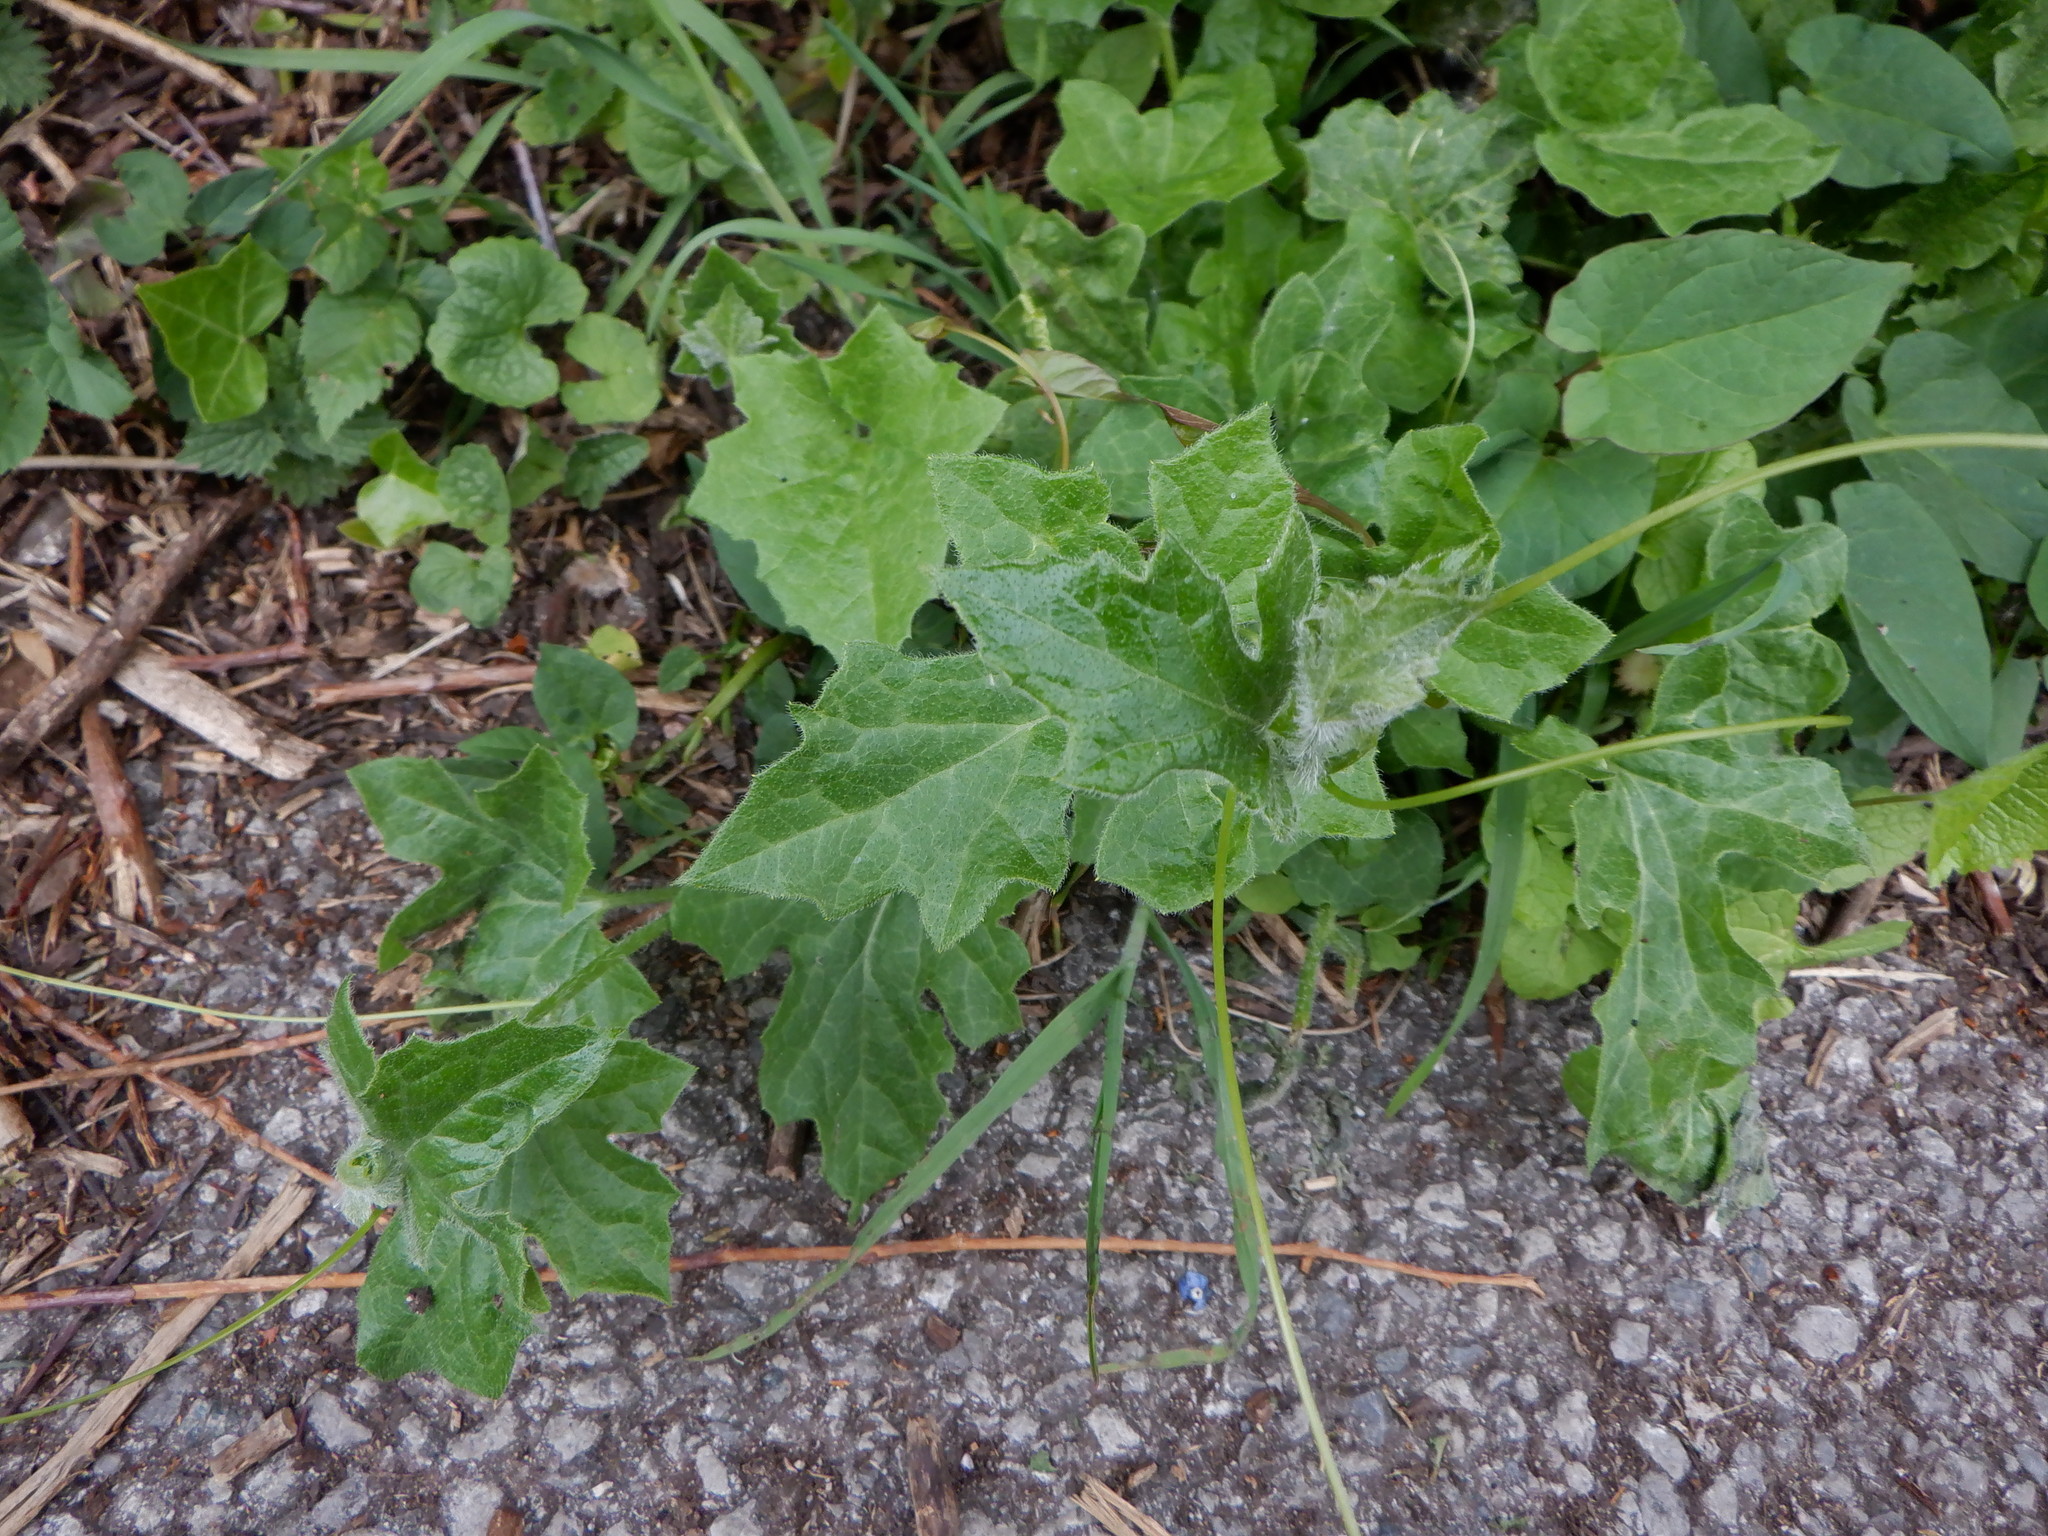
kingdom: Plantae
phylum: Tracheophyta
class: Magnoliopsida
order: Cucurbitales
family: Cucurbitaceae
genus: Bryonia
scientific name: Bryonia cretica
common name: Cretan bryony
